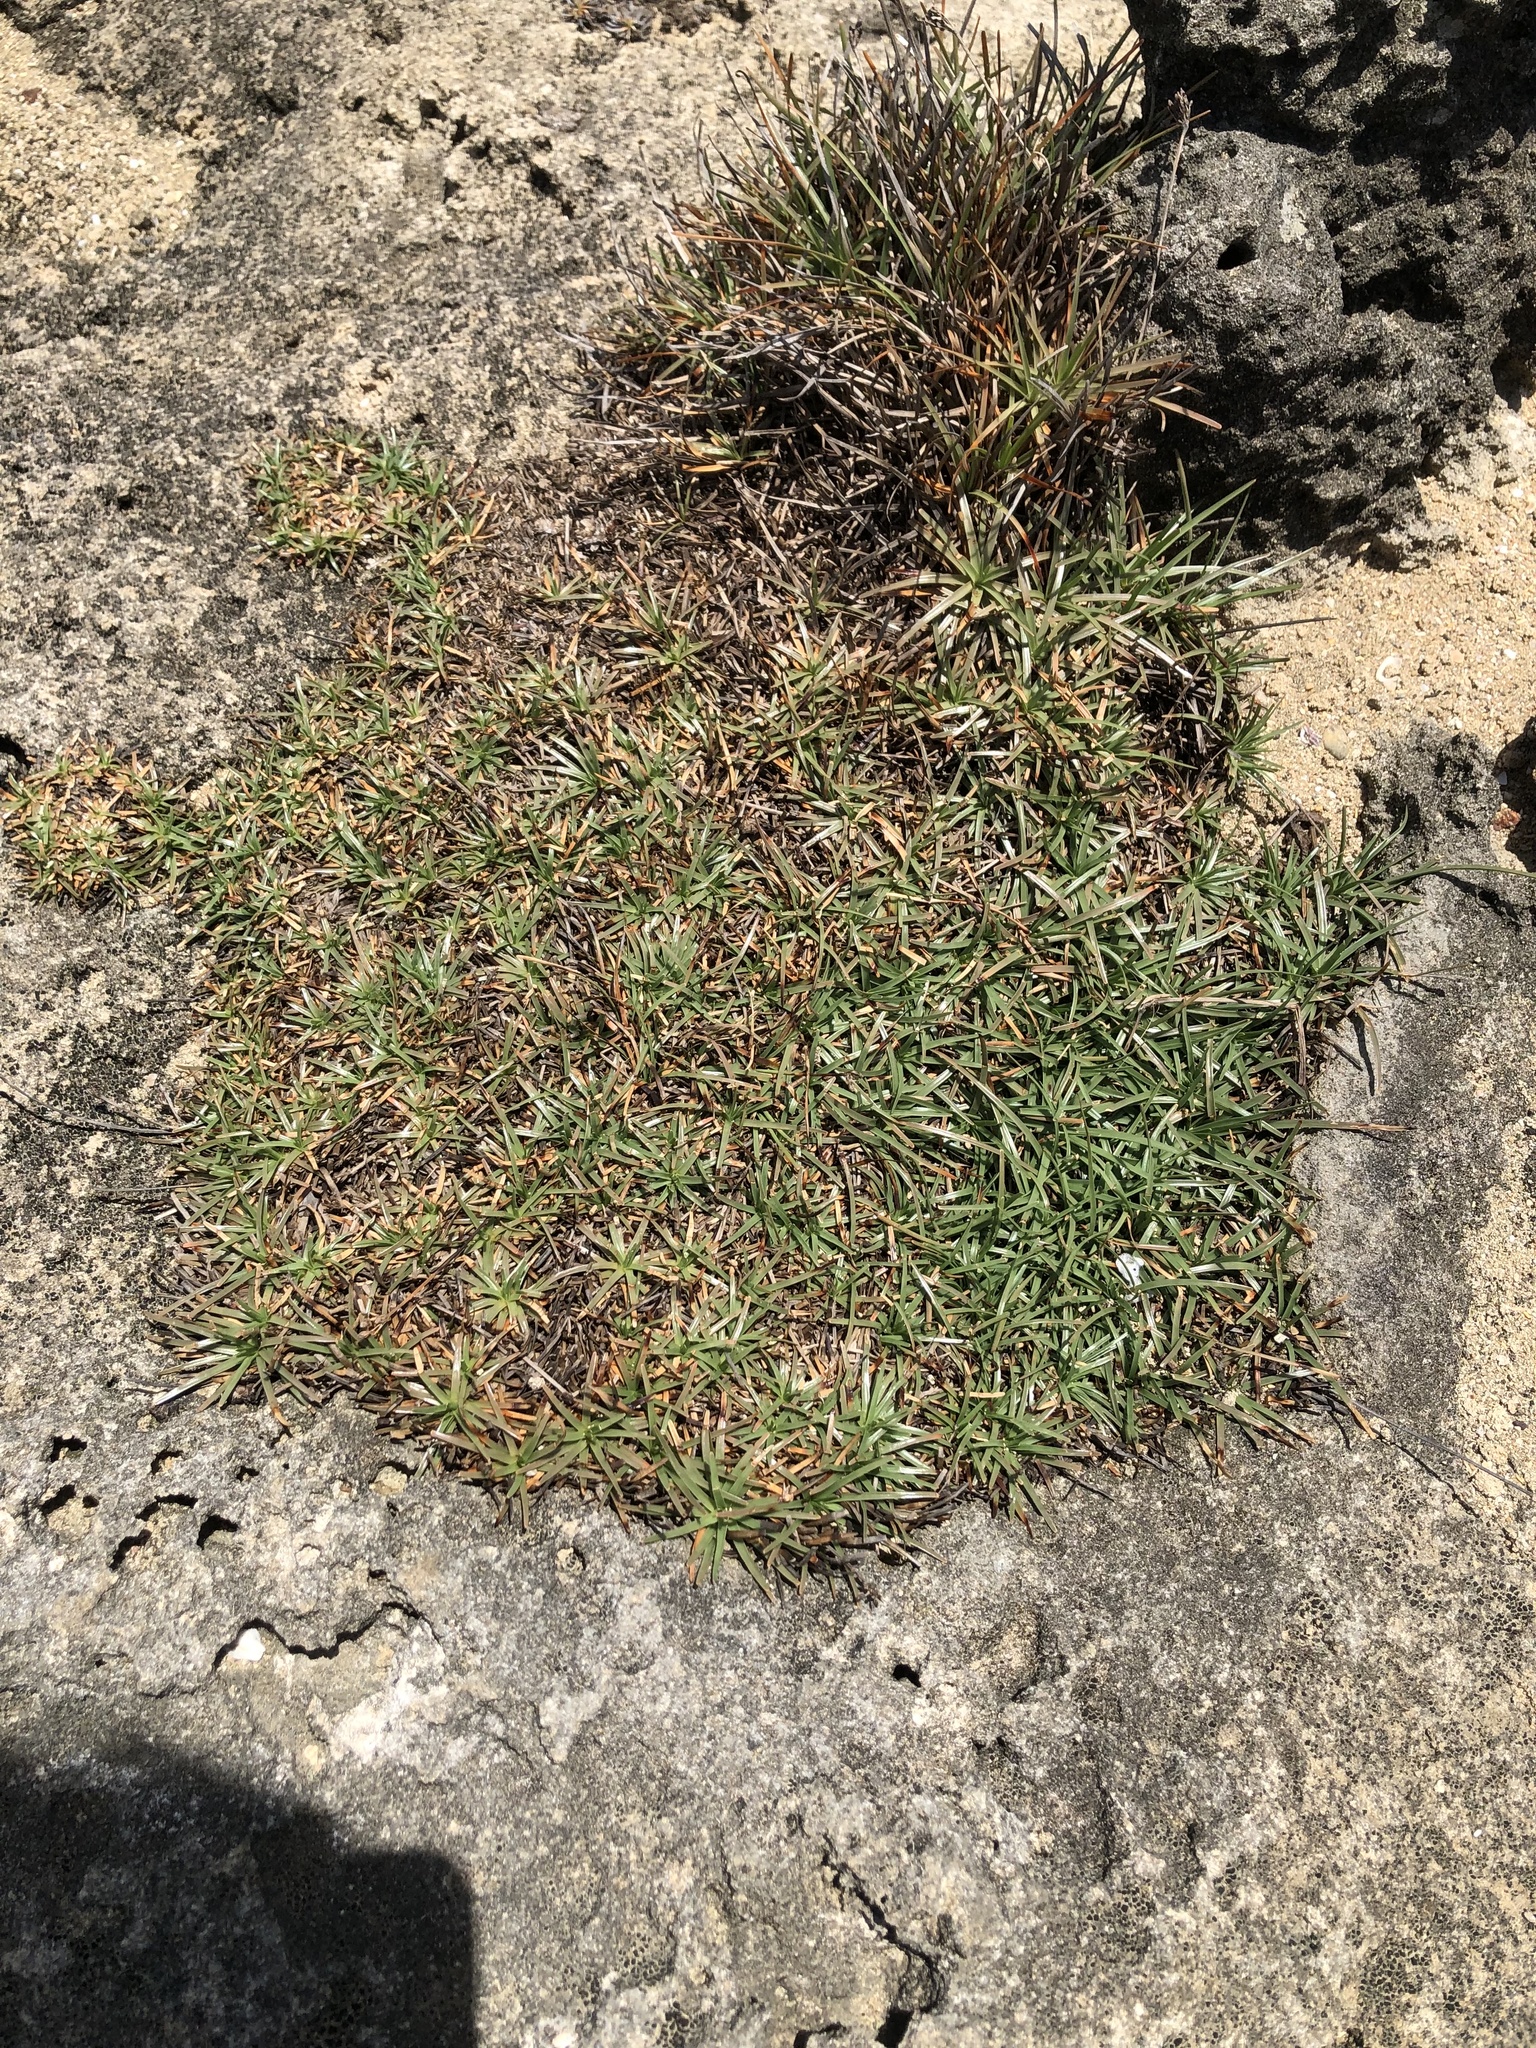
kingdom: Plantae
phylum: Tracheophyta
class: Liliopsida
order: Poales
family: Cyperaceae
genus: Fimbristylis
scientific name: Fimbristylis cymosa
